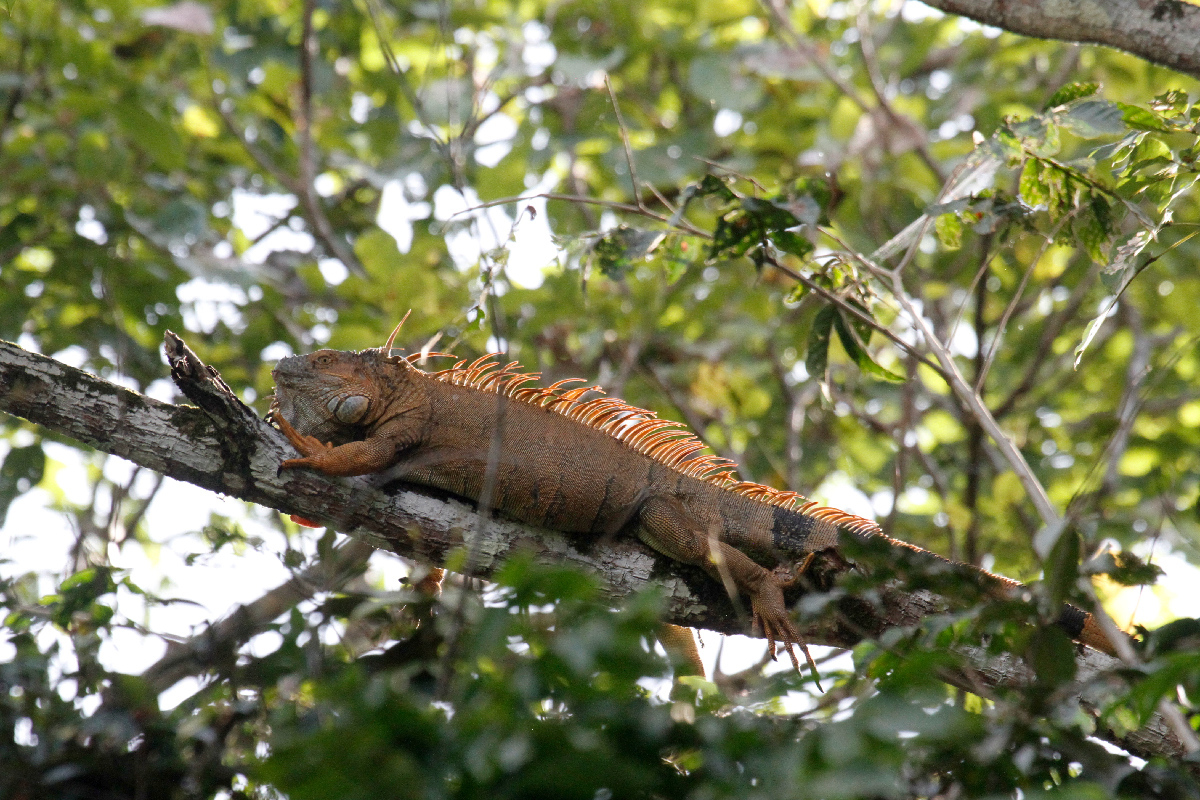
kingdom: Animalia
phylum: Chordata
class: Squamata
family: Iguanidae
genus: Iguana
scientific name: Iguana iguana
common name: Green iguana
